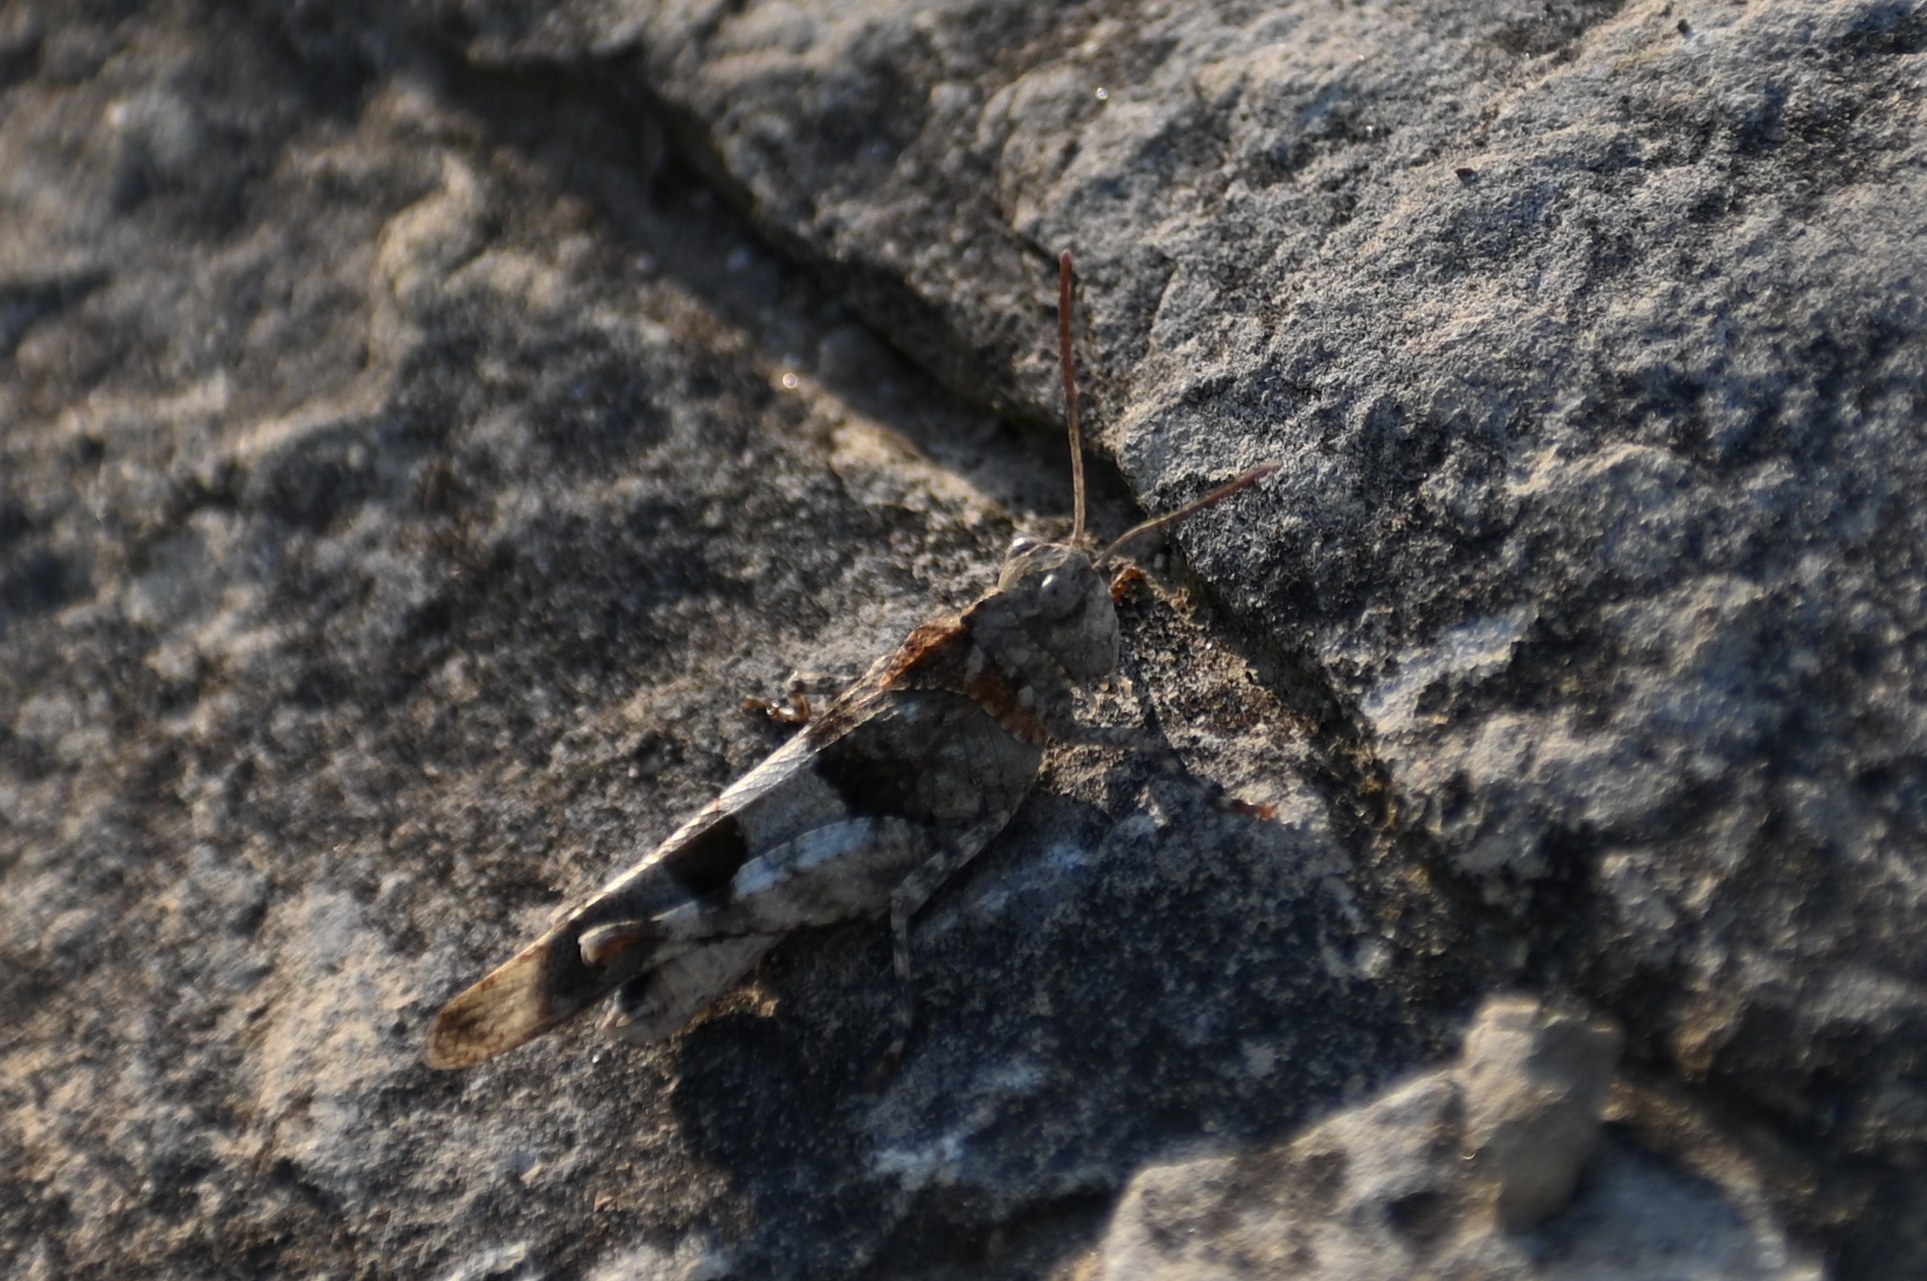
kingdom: Animalia
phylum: Arthropoda
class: Insecta
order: Orthoptera
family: Acrididae
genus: Oedipoda
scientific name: Oedipoda caerulescens
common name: Blue-winged grasshopper
